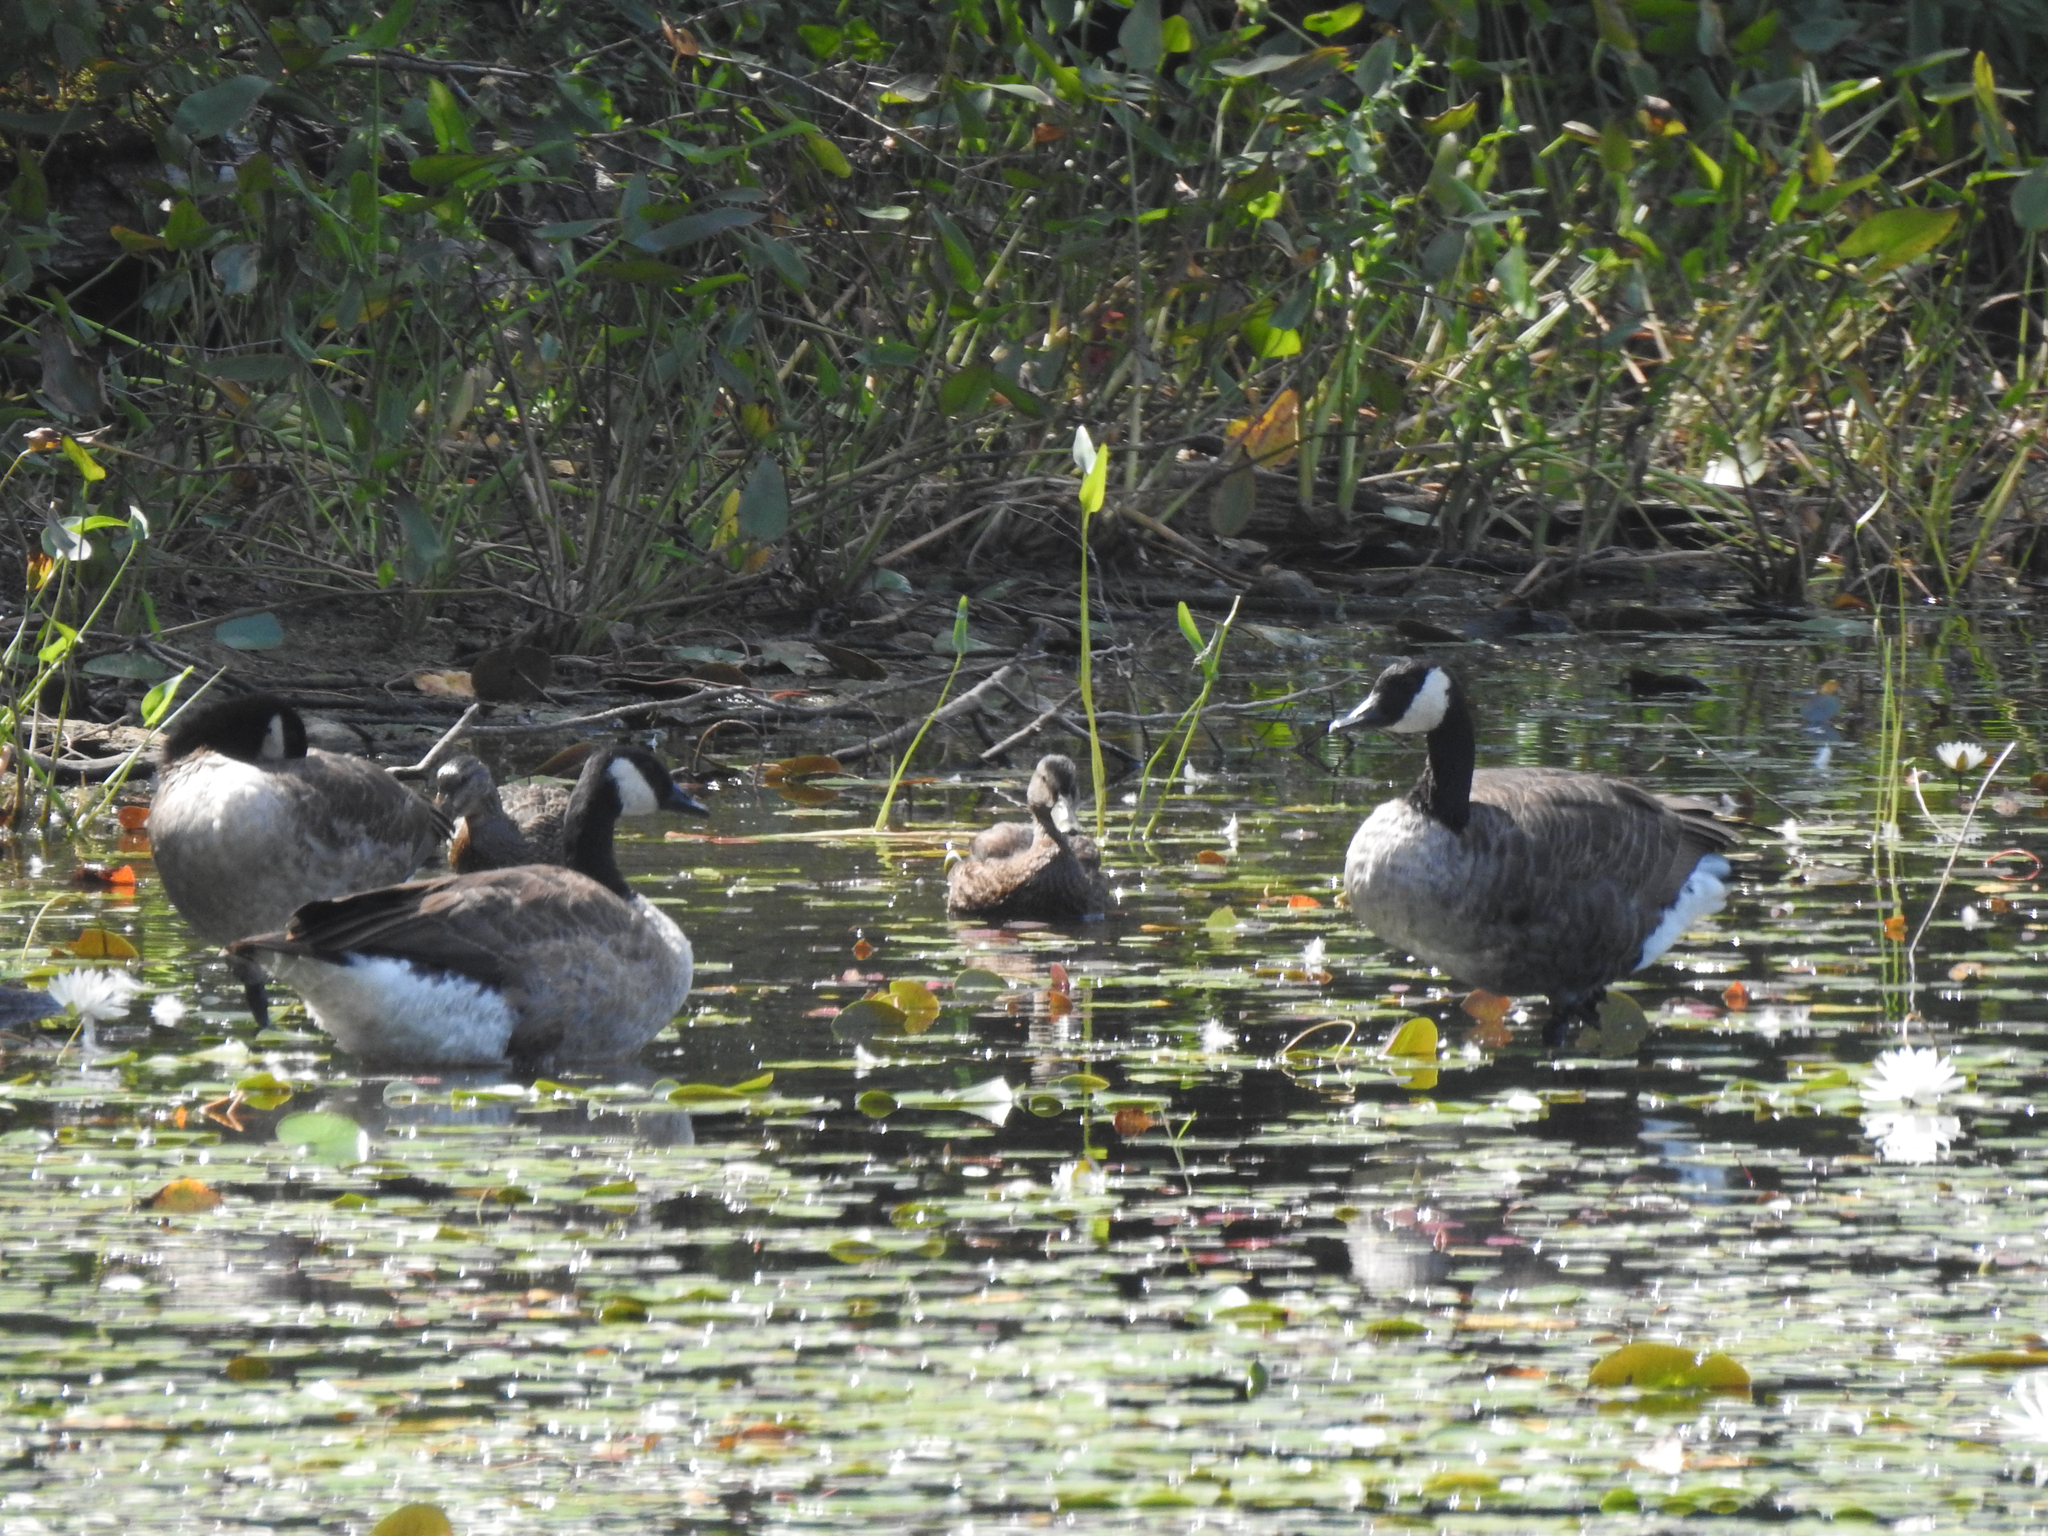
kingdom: Animalia
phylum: Chordata
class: Aves
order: Anseriformes
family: Anatidae
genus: Branta
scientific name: Branta canadensis
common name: Canada goose
